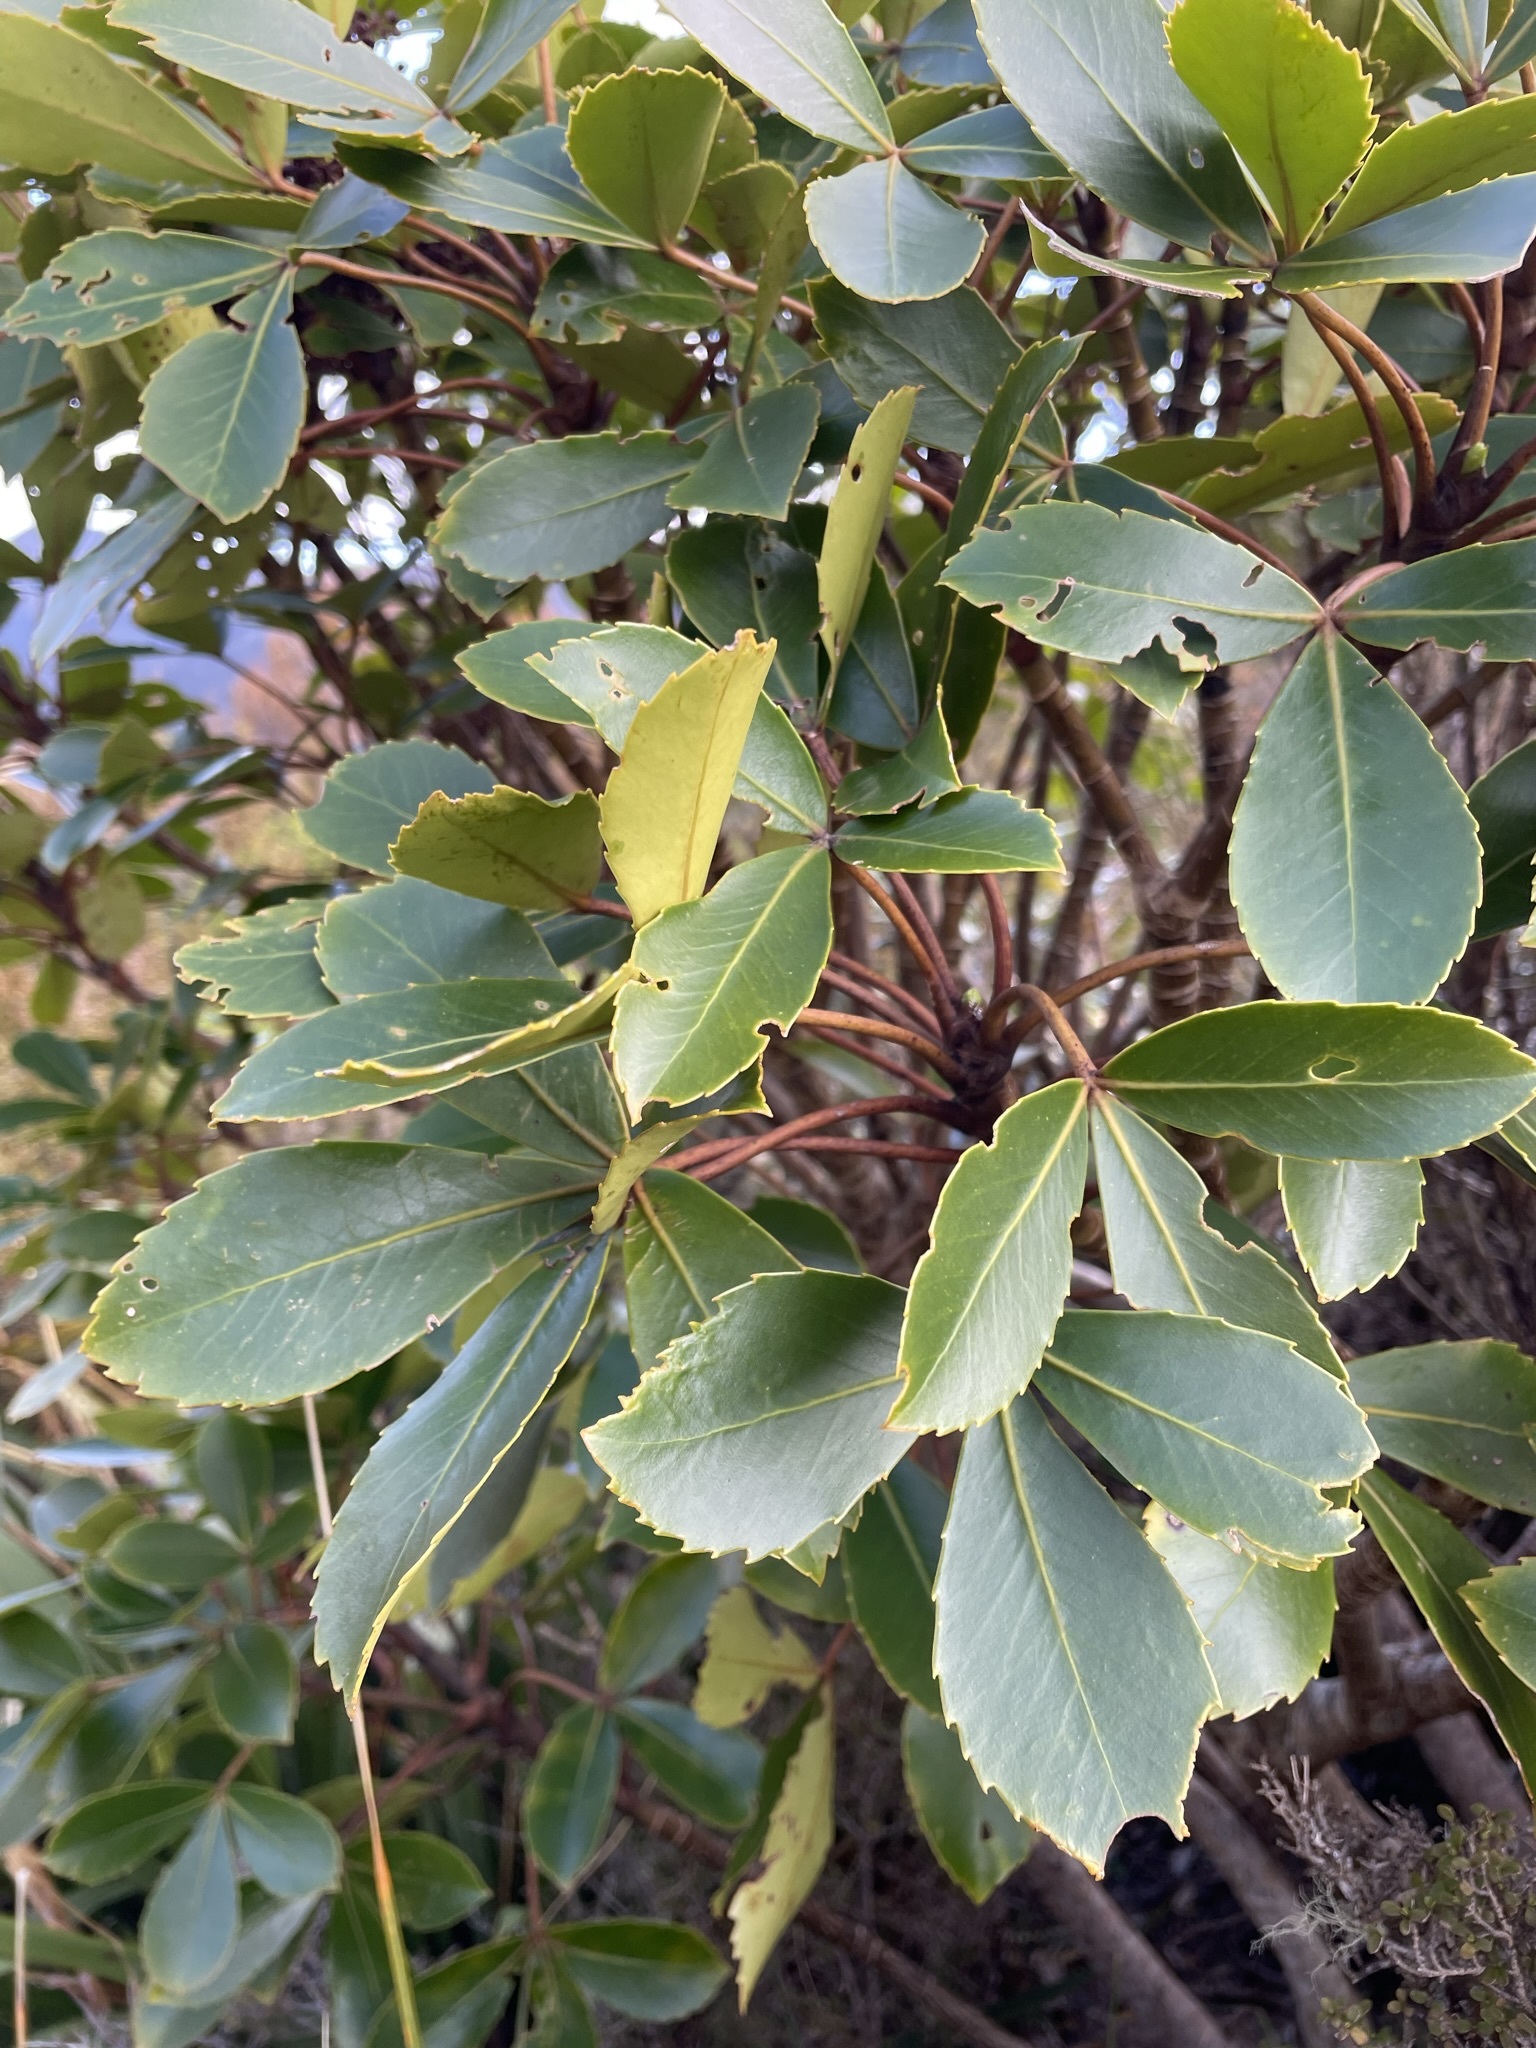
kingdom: Plantae
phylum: Tracheophyta
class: Magnoliopsida
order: Apiales
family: Araliaceae
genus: Neopanax
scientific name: Neopanax colensoi
